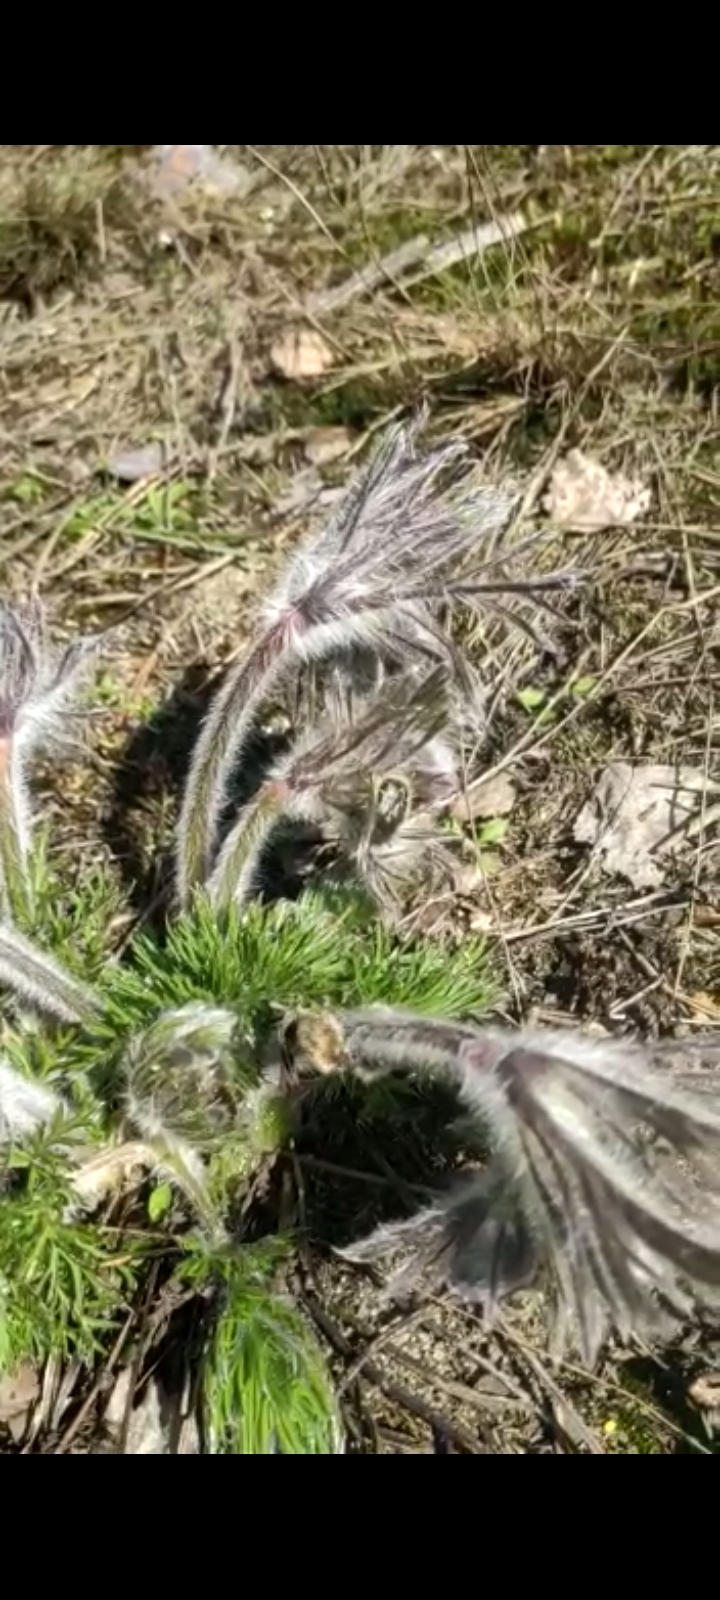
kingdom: Animalia
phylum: Arthropoda
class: Insecta
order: Coleoptera
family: Scarabaeidae
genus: Tropinota
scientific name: Tropinota hirta
